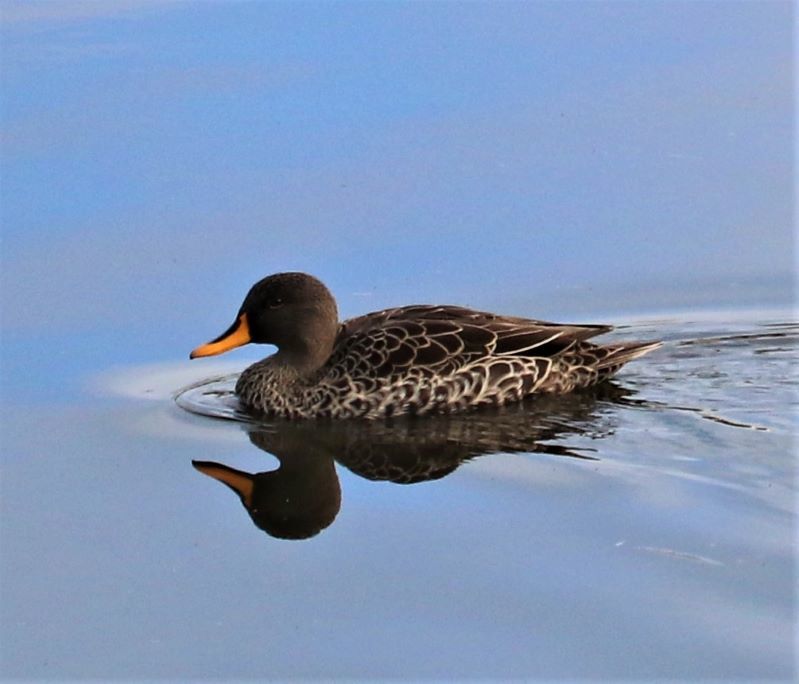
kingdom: Animalia
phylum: Chordata
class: Aves
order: Anseriformes
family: Anatidae
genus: Anas
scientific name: Anas undulata
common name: Yellow-billed duck
